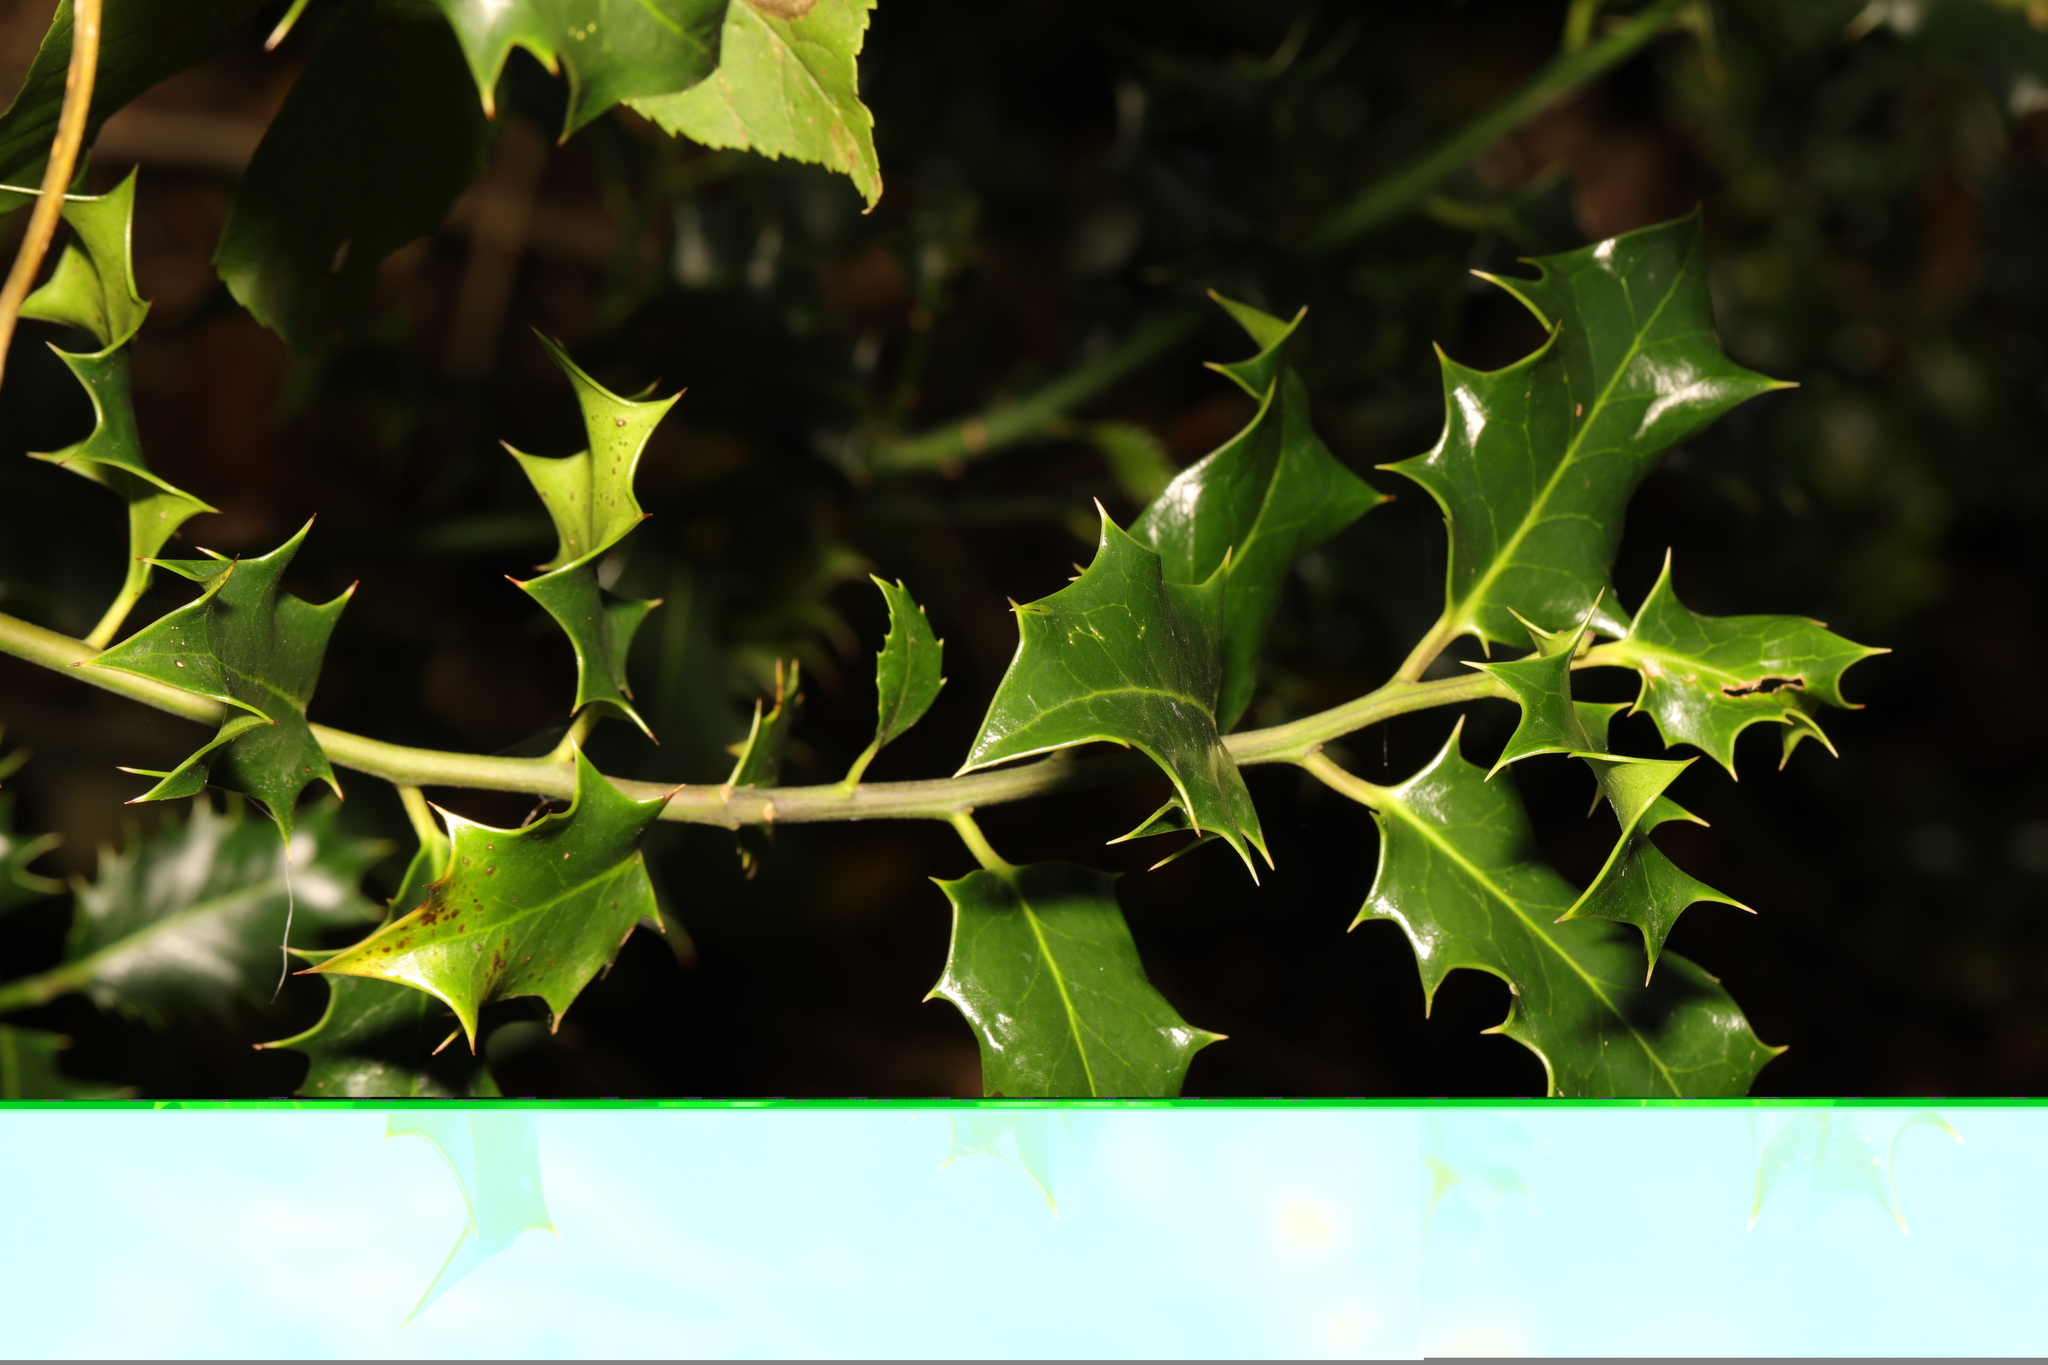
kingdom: Plantae
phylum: Tracheophyta
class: Magnoliopsida
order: Aquifoliales
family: Aquifoliaceae
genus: Ilex
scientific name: Ilex aquifolium
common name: English holly
